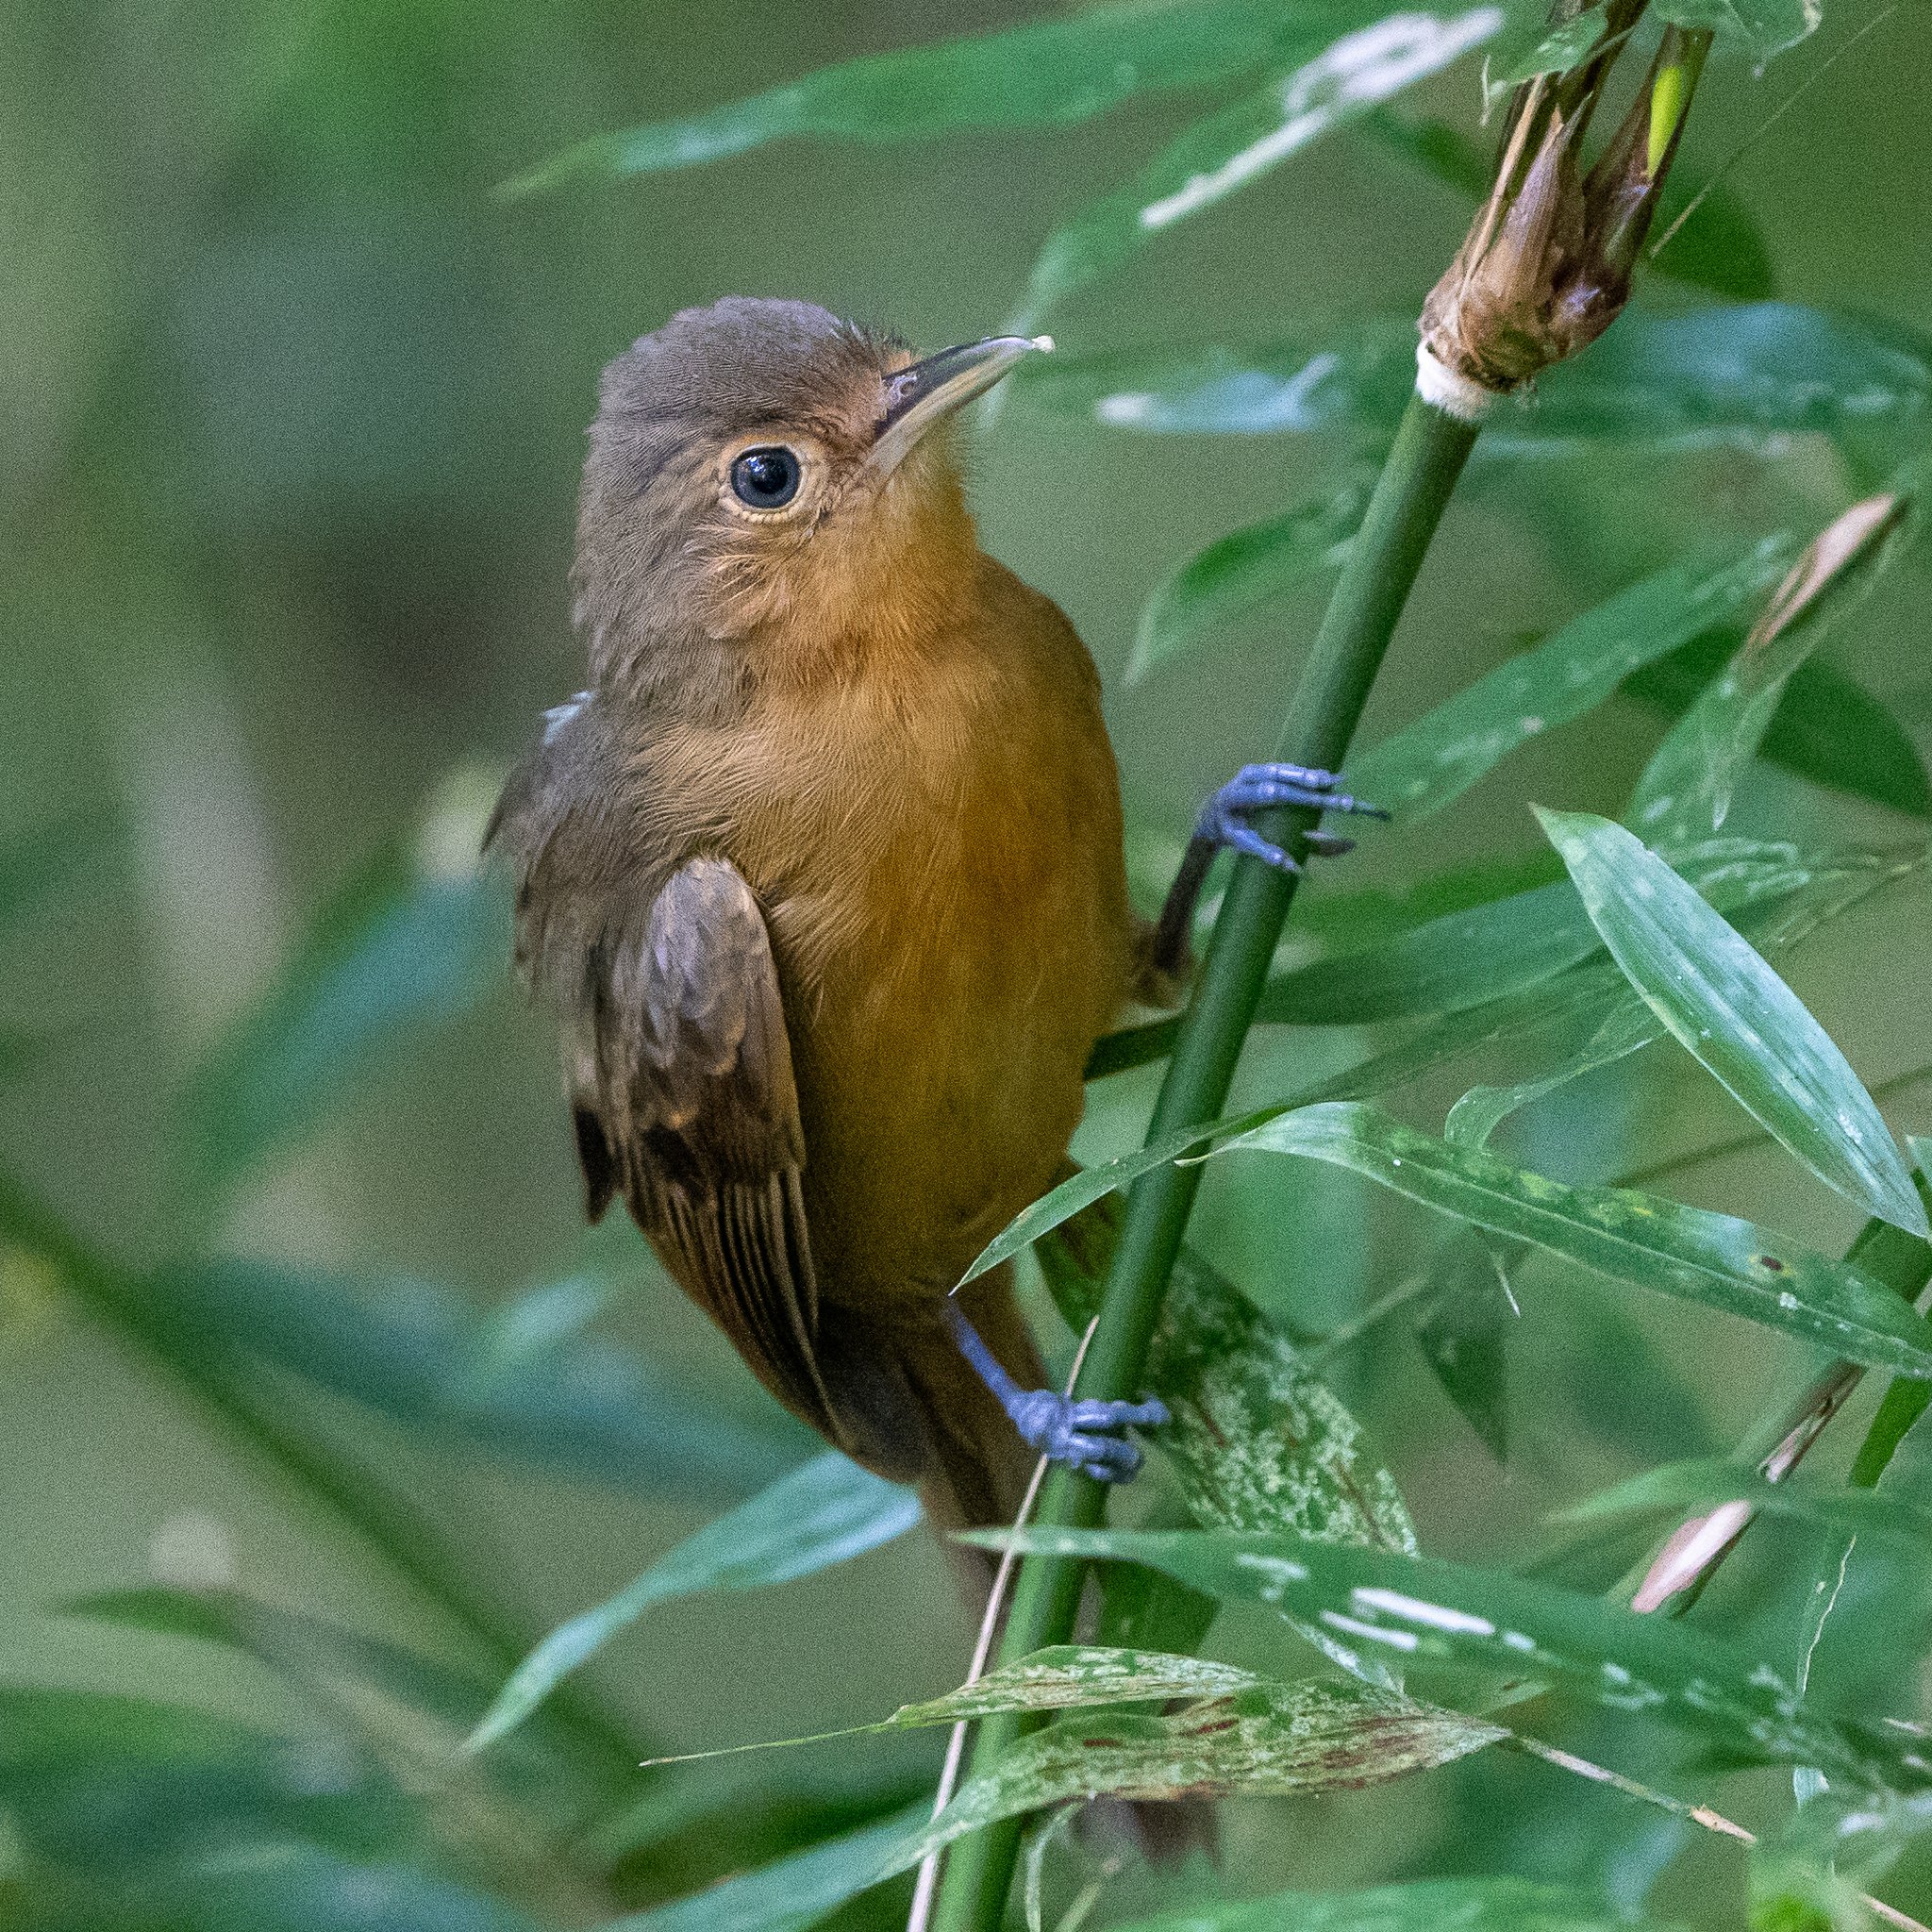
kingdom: Animalia
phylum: Chordata
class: Aves
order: Passeriformes
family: Thamnophilidae
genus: Cercomacra
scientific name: Cercomacra tyrannina
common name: Dusky antbird
